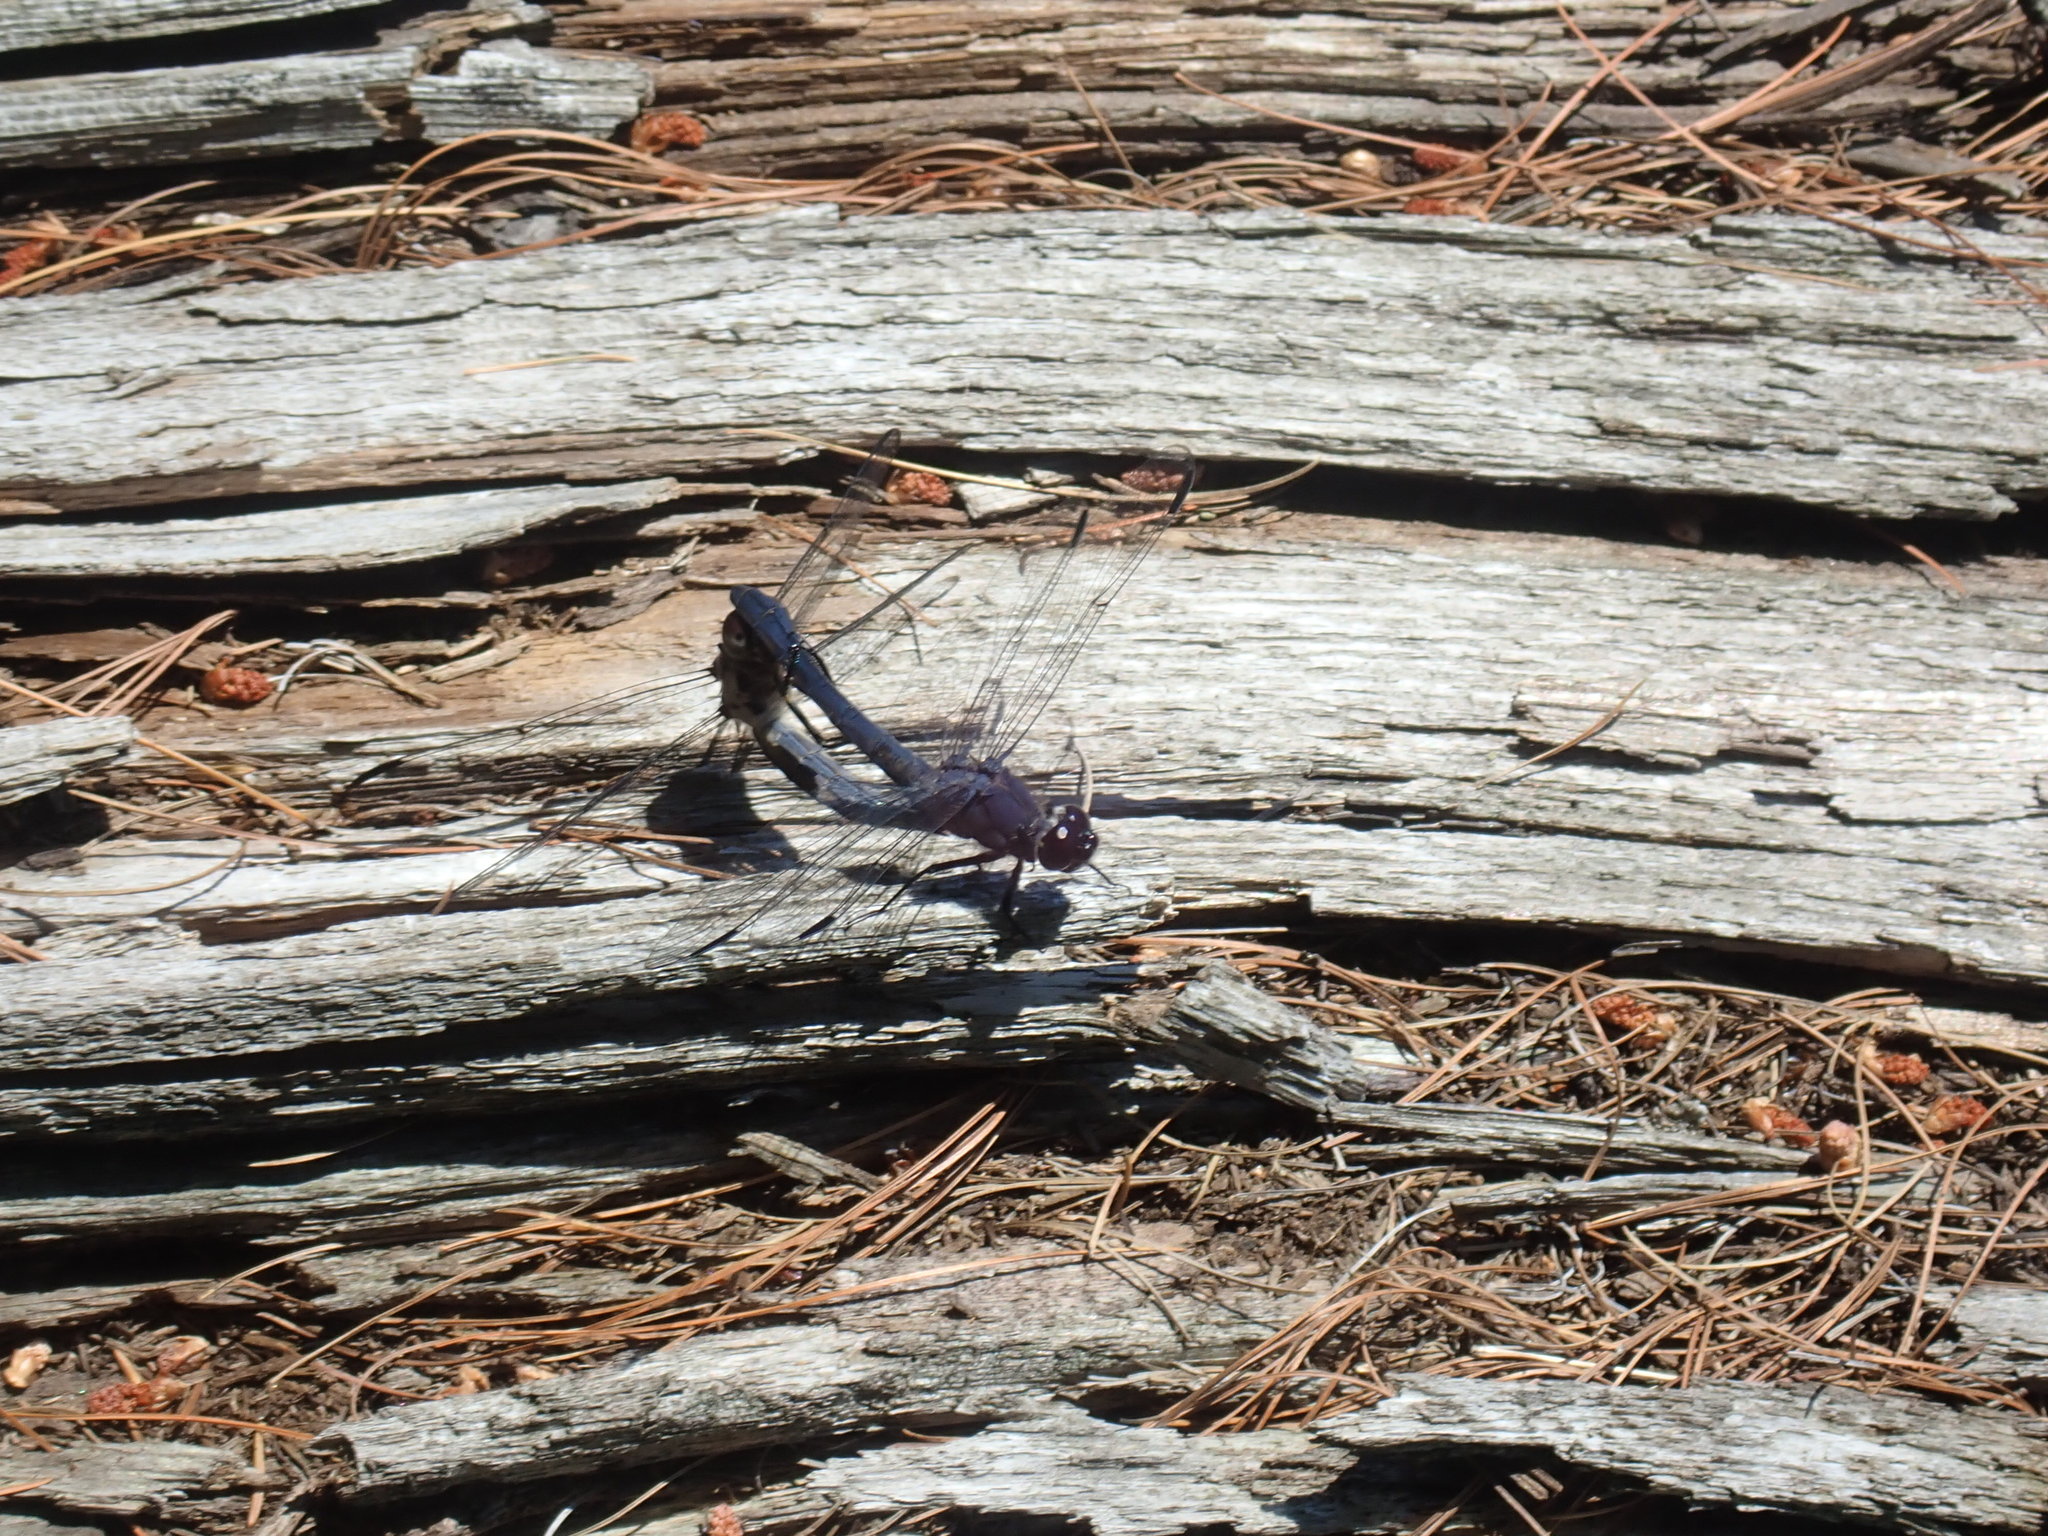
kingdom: Animalia
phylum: Arthropoda
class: Insecta
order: Odonata
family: Libellulidae
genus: Libellula
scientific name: Libellula incesta
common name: Slaty skimmer
